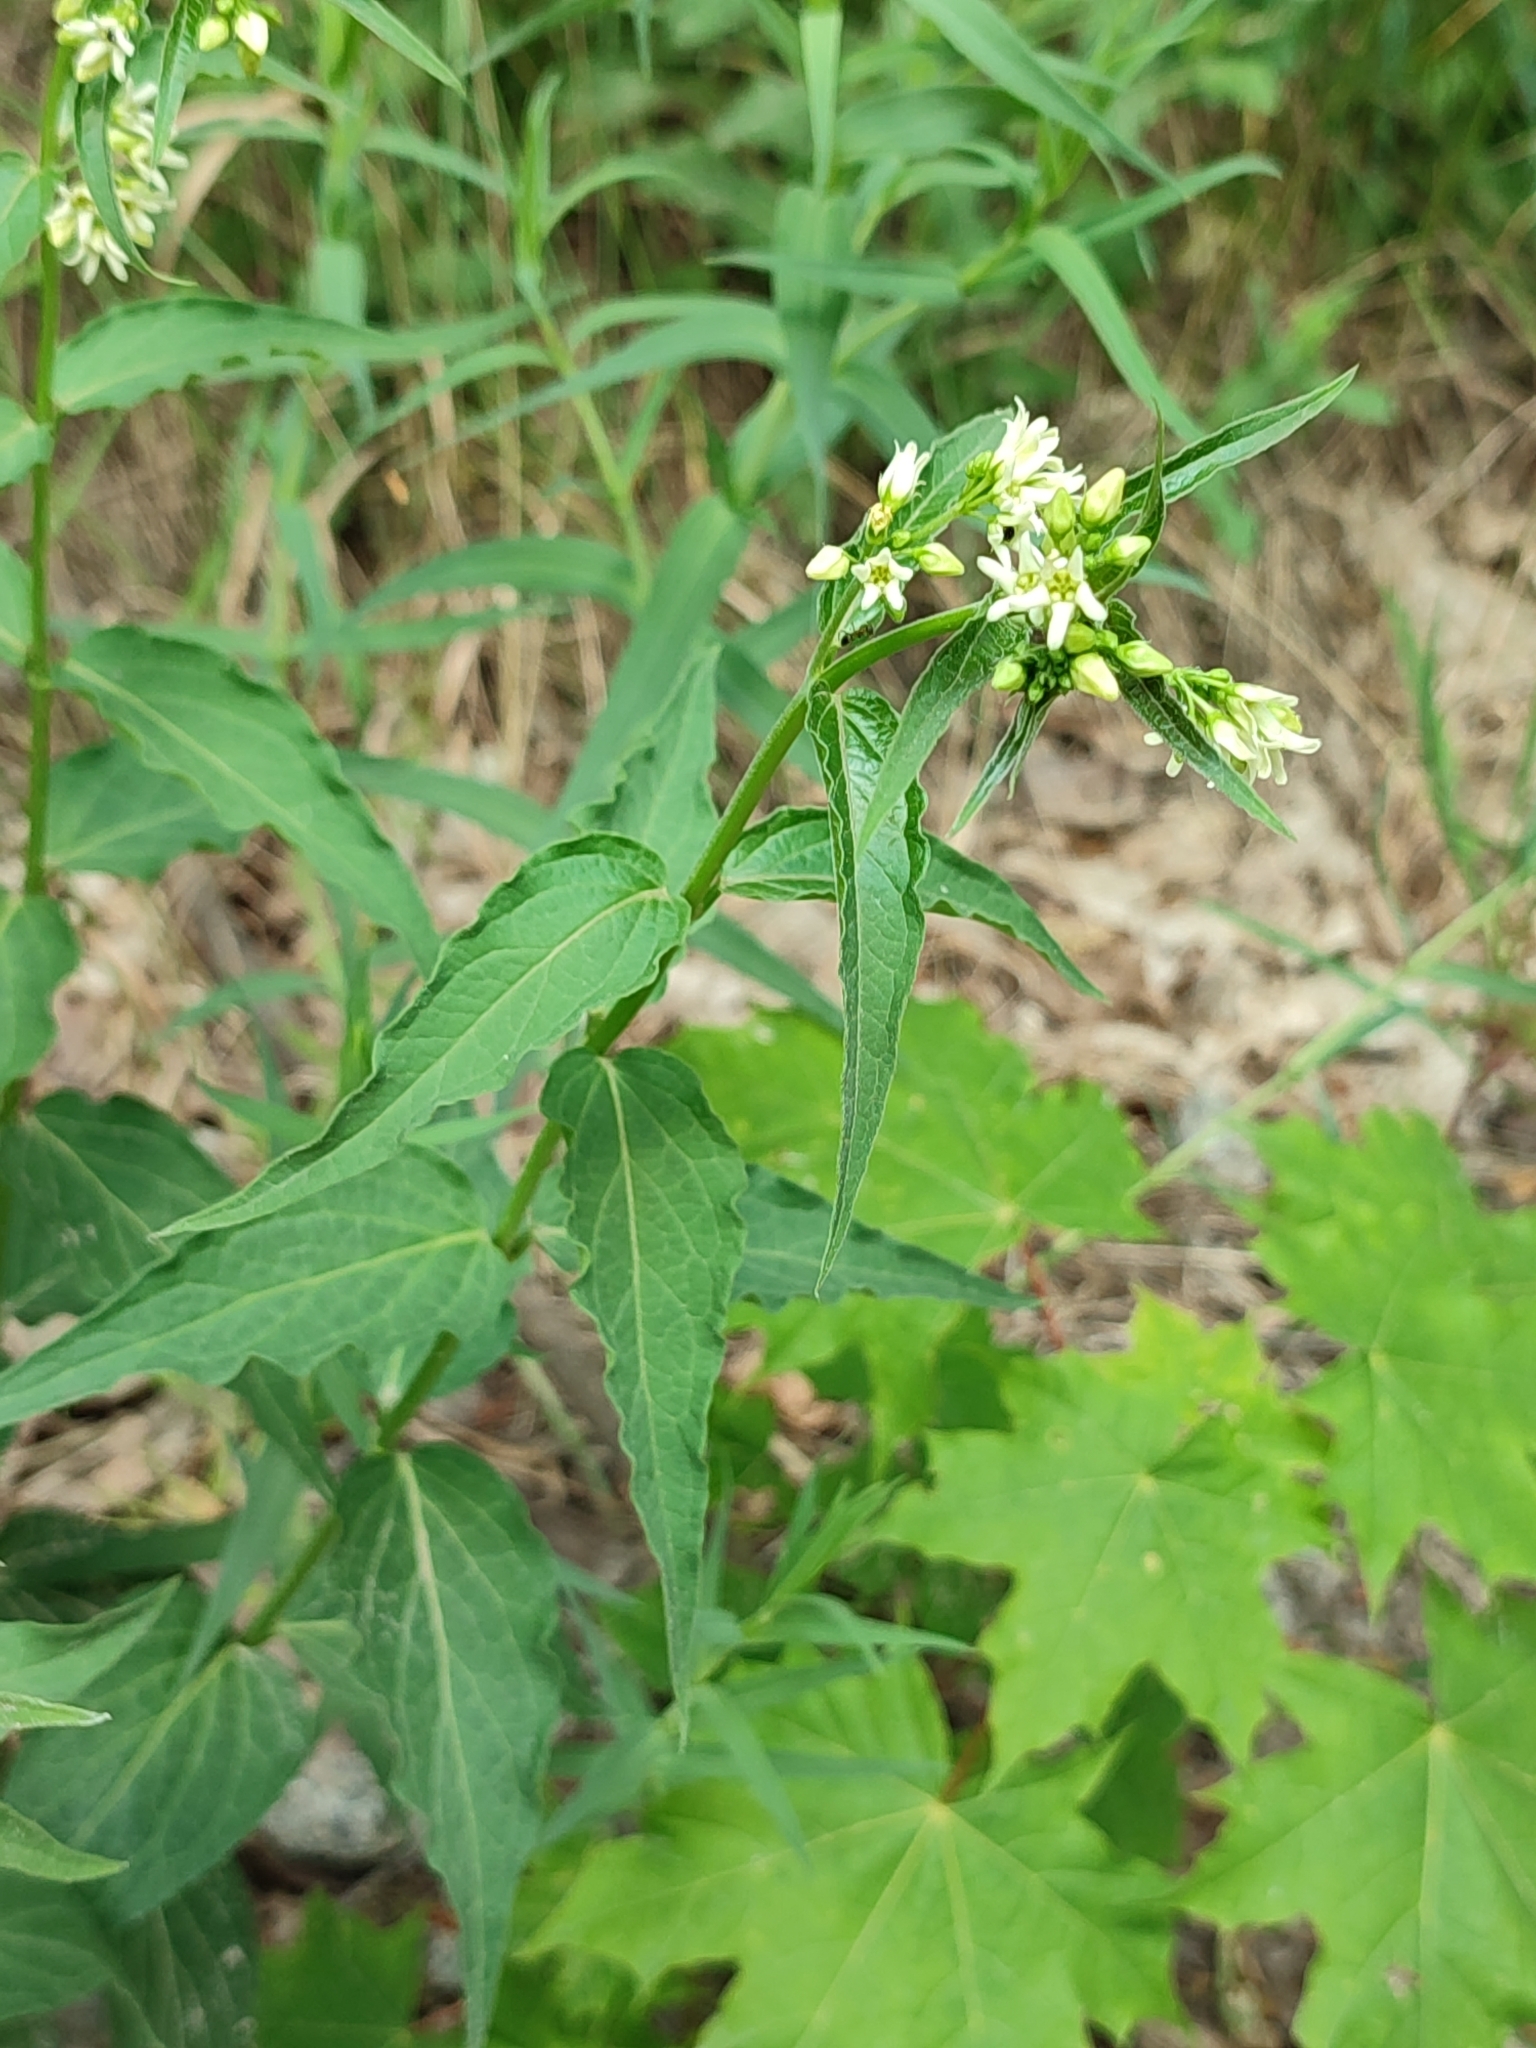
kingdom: Plantae
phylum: Tracheophyta
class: Magnoliopsida
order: Gentianales
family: Apocynaceae
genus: Vincetoxicum
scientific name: Vincetoxicum hirundinaria
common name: White swallowwort
